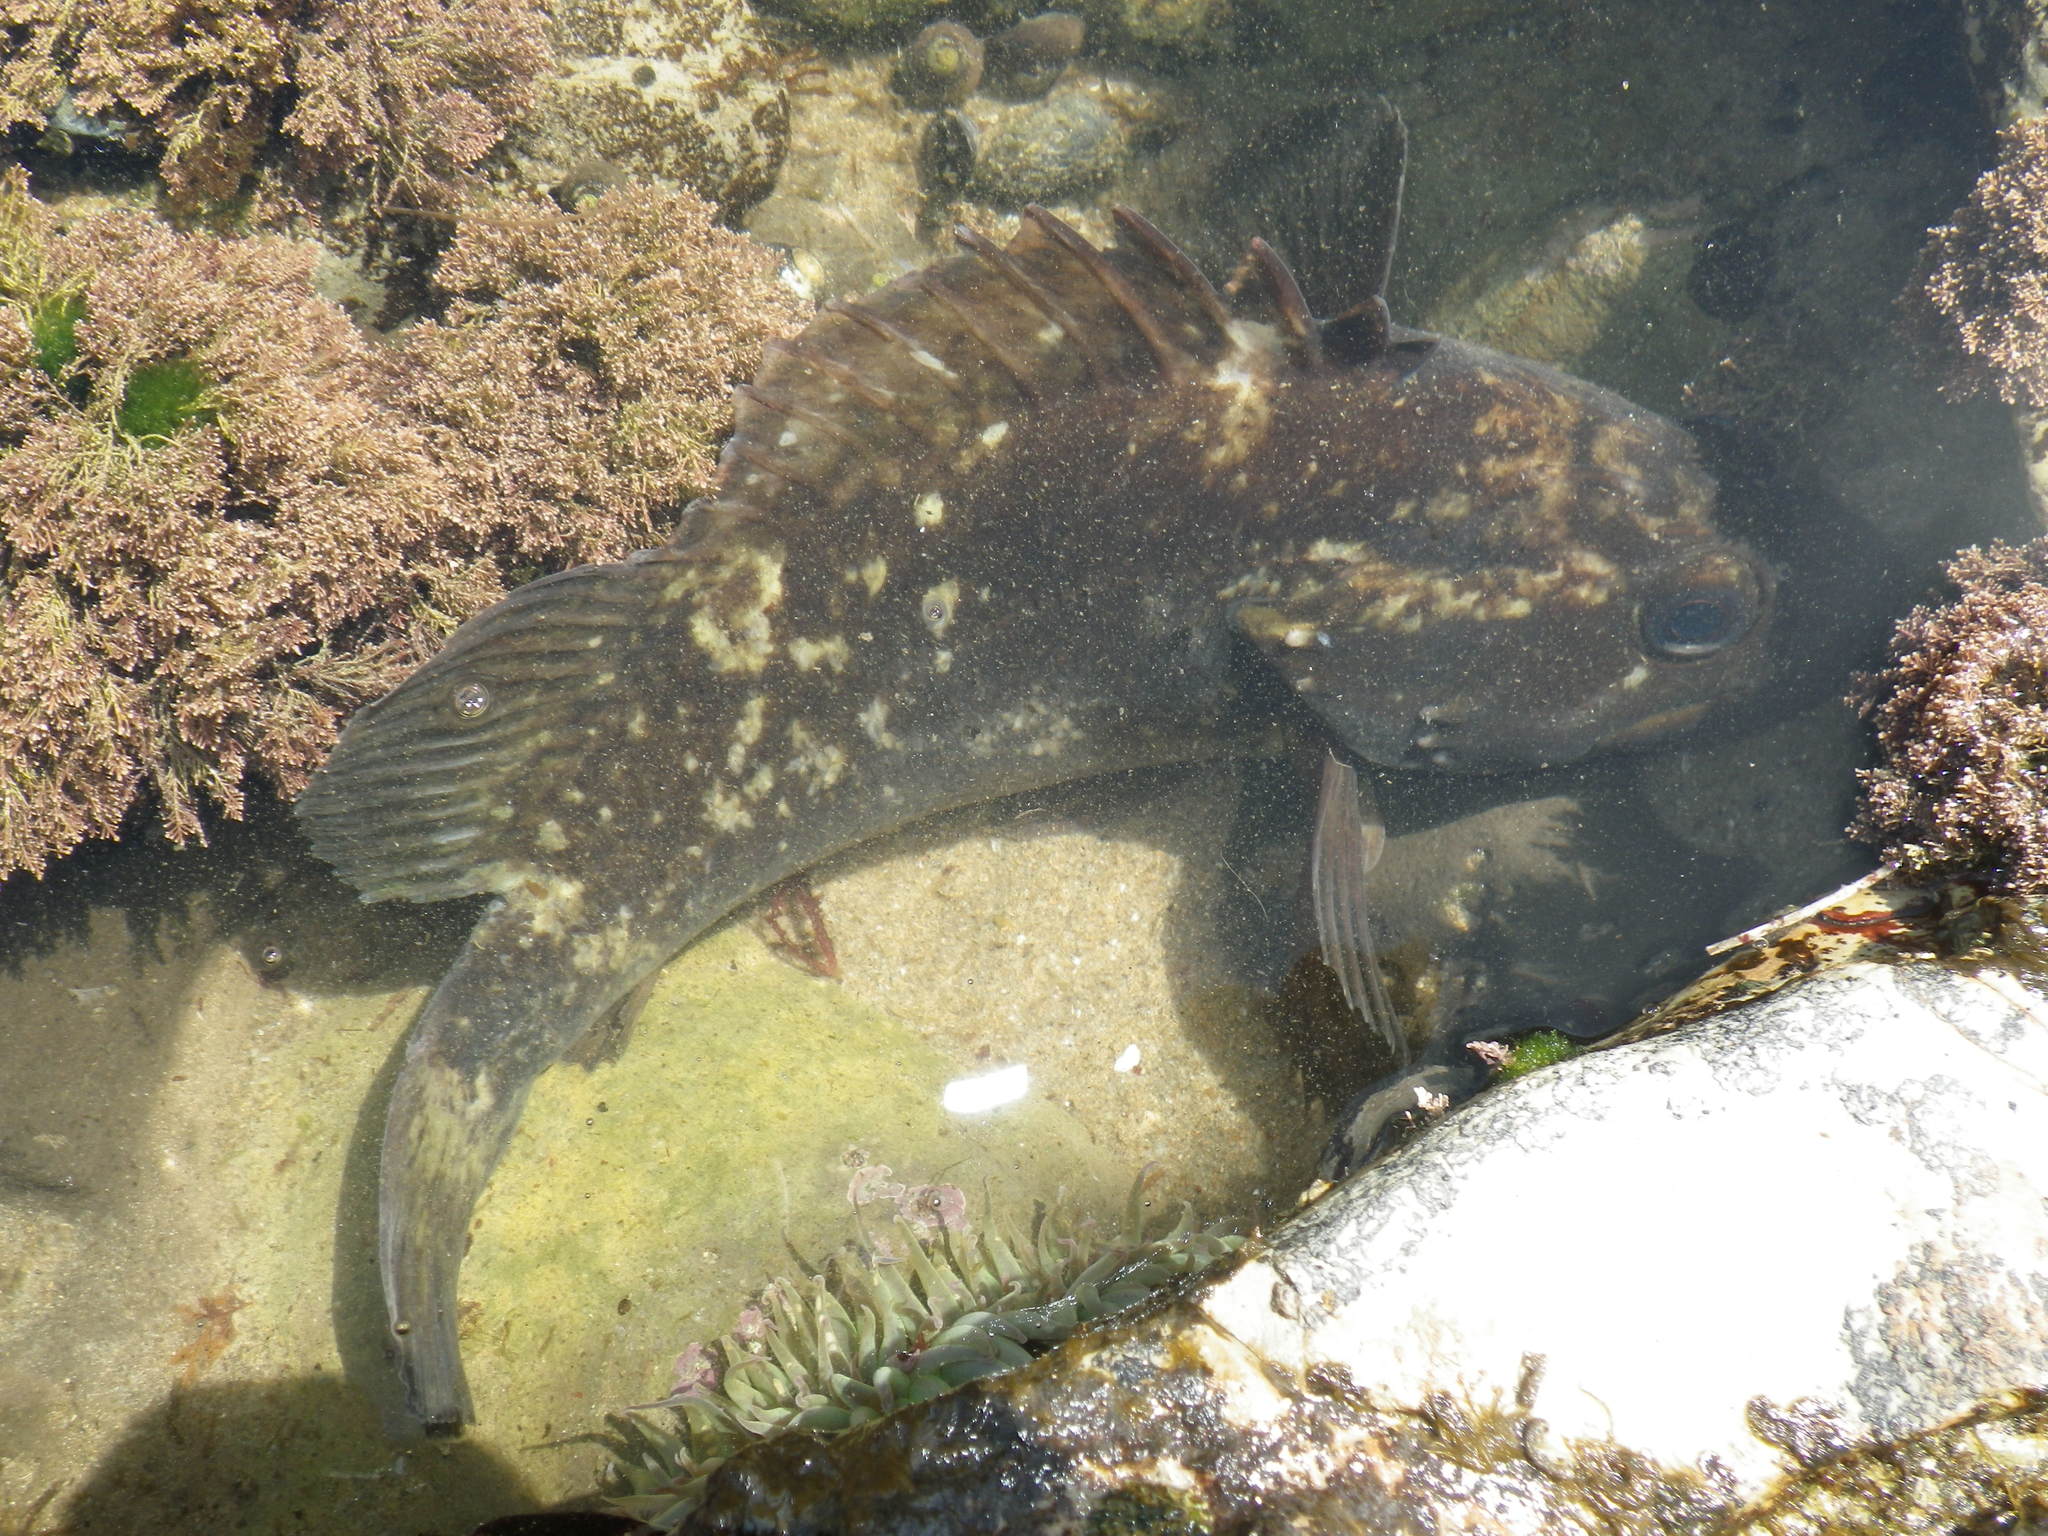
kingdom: Animalia
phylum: Chordata
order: Scorpaeniformes
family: Sebastidae
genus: Sebastes
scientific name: Sebastes rastrelliger
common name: Grass rockfish
